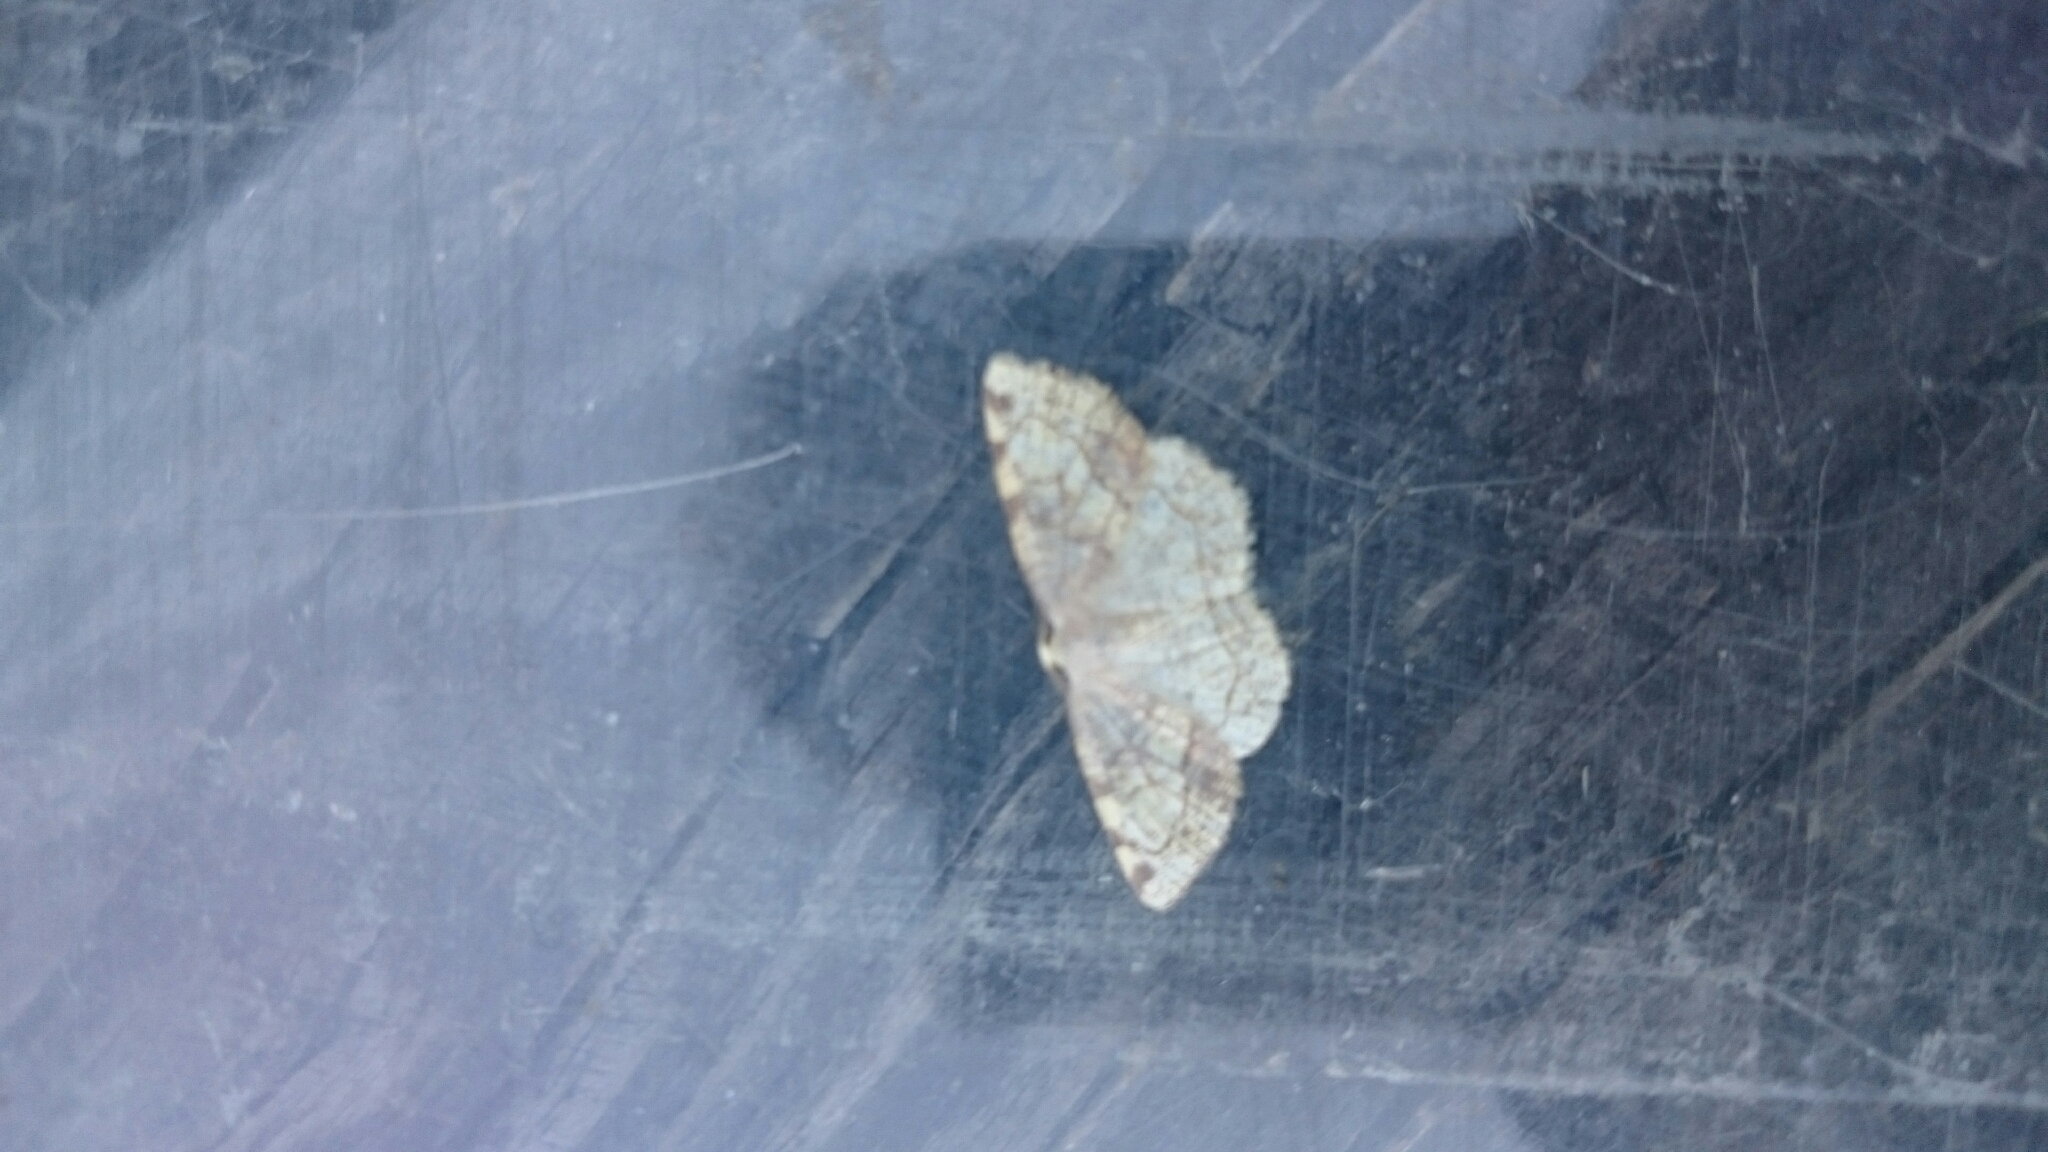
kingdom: Animalia
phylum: Arthropoda
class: Insecta
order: Lepidoptera
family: Geometridae
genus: Stegania
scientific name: Stegania trimaculata
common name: Dorset cream wave
